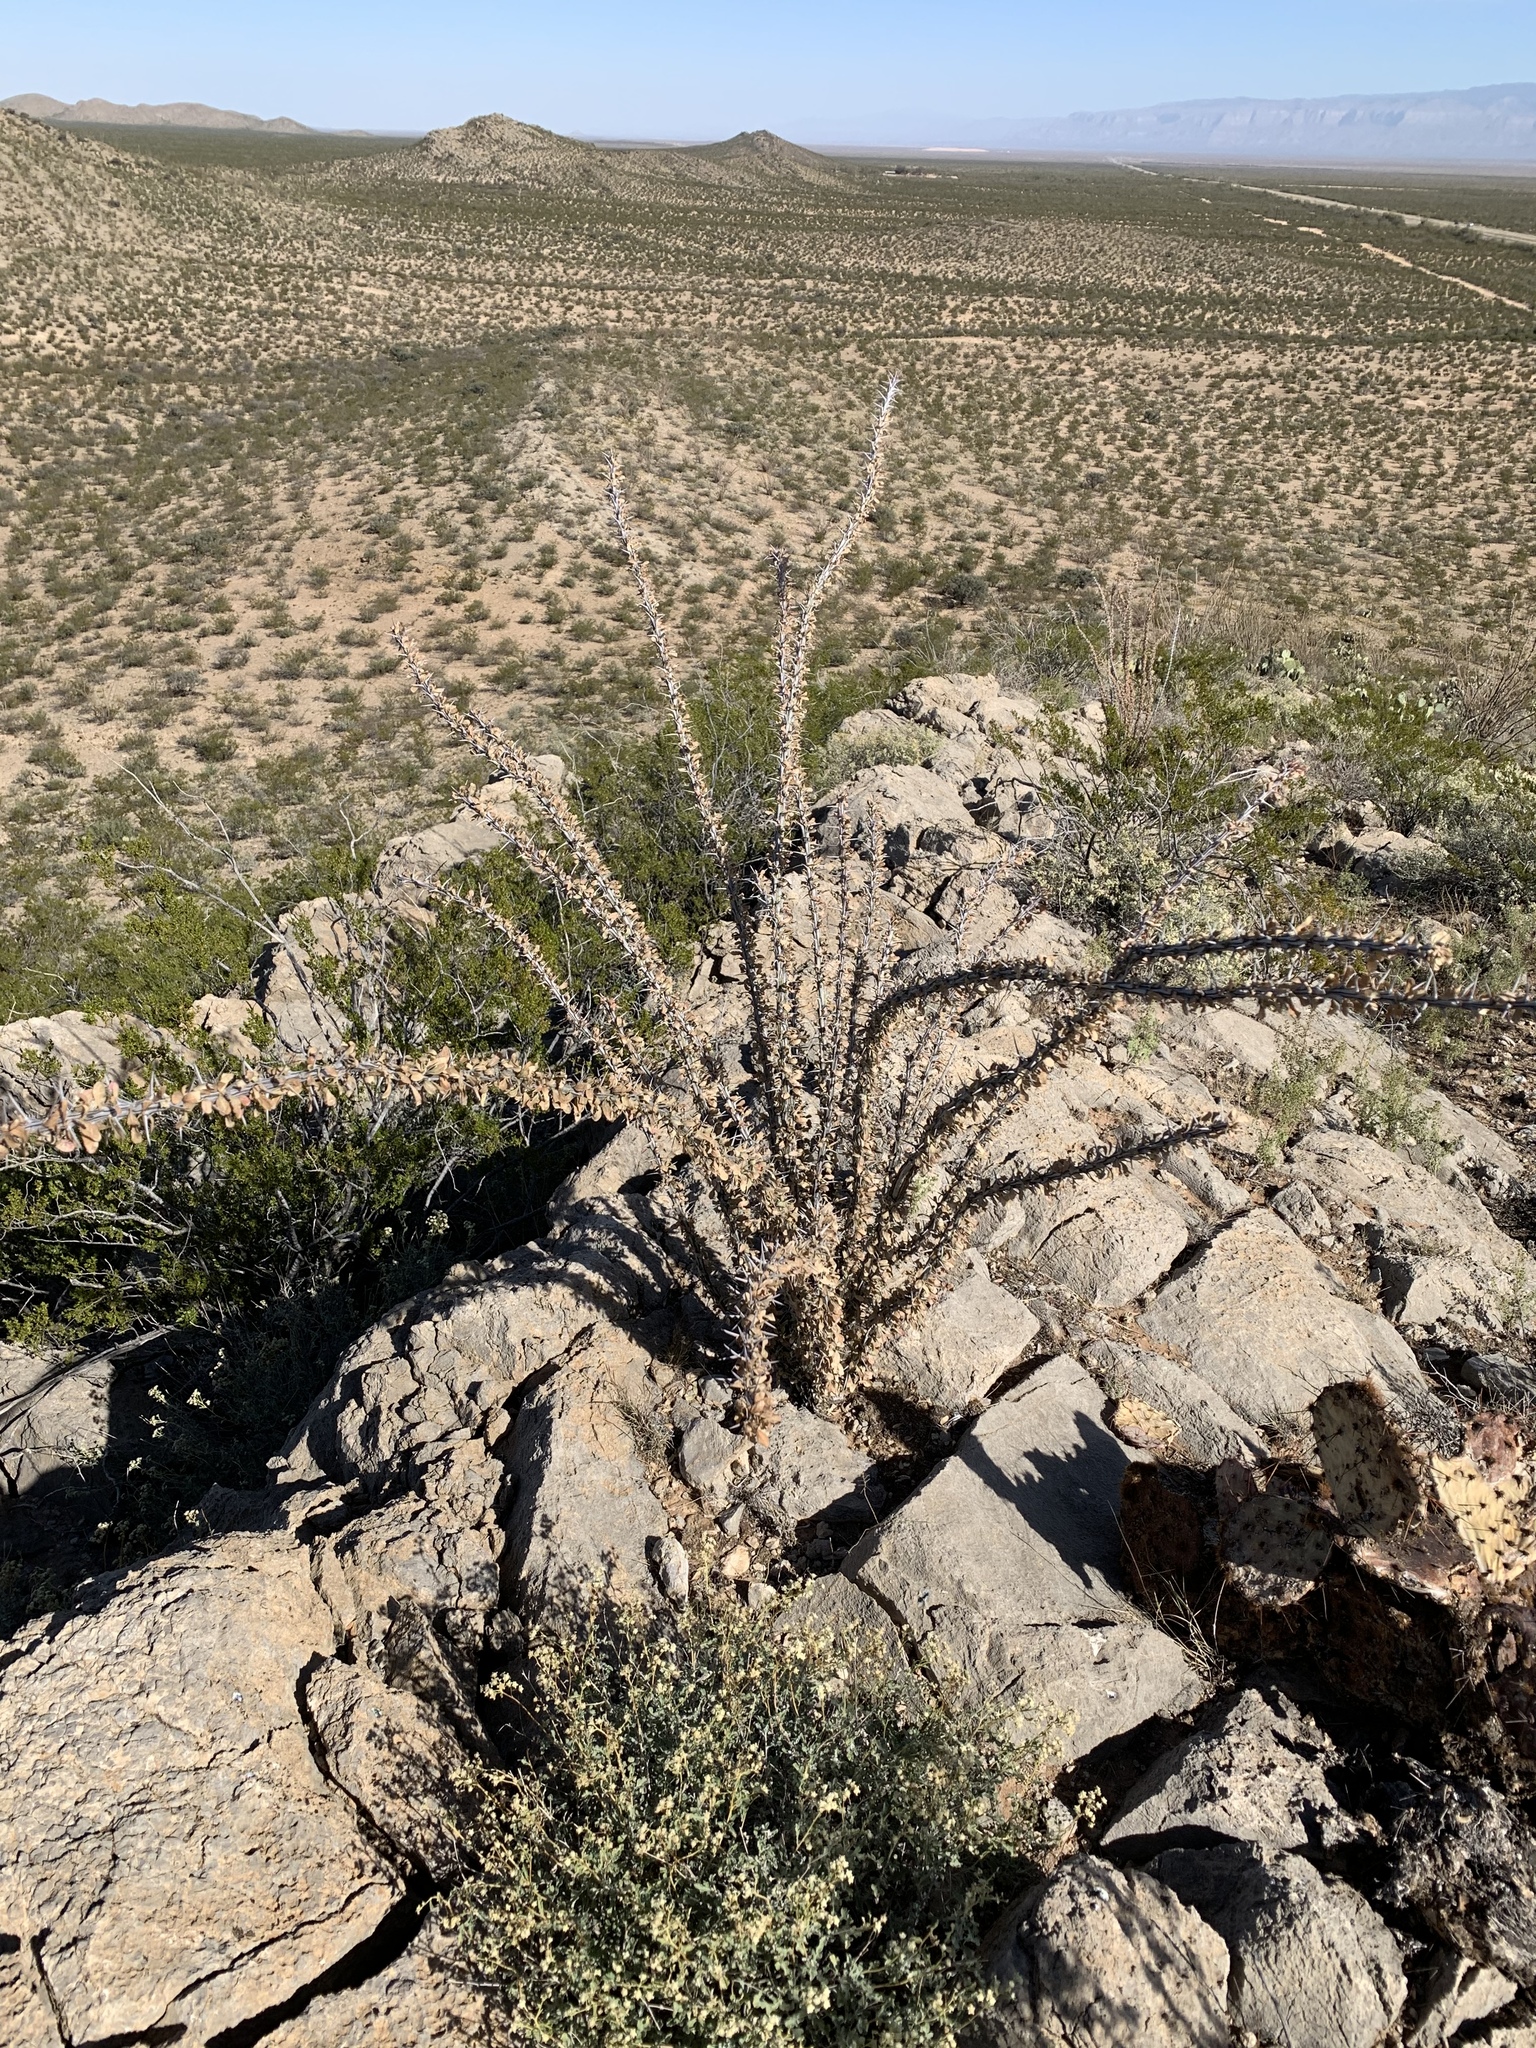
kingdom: Plantae
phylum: Tracheophyta
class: Magnoliopsida
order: Ericales
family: Fouquieriaceae
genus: Fouquieria
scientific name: Fouquieria splendens
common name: Vine-cactus
